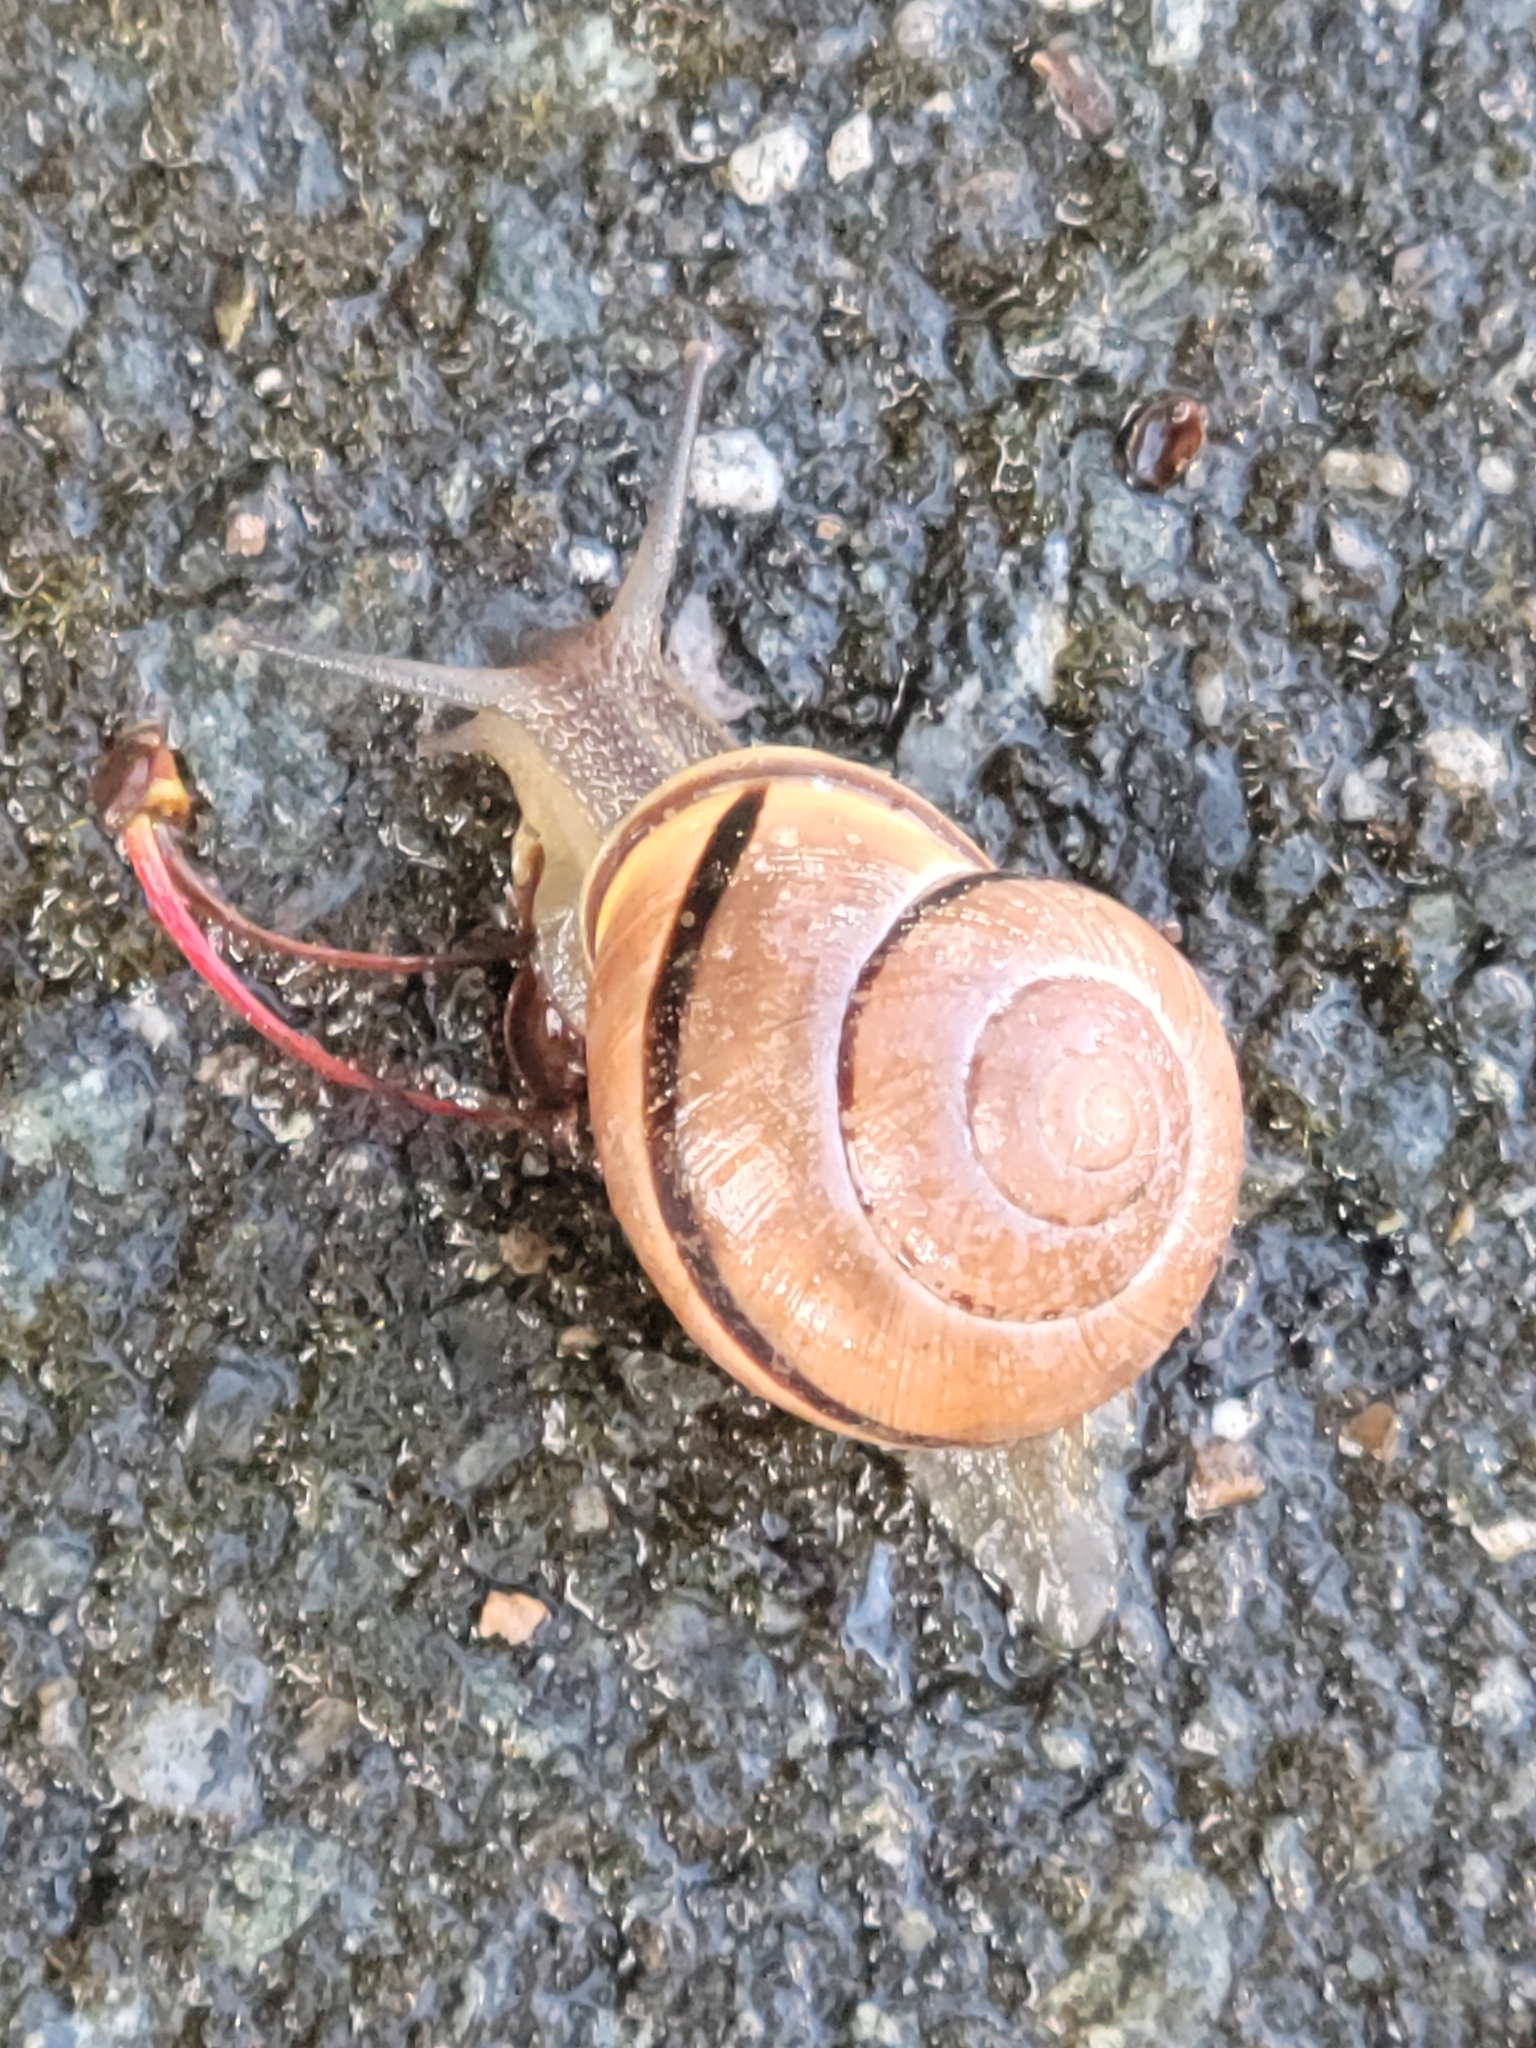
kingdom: Animalia
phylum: Mollusca
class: Gastropoda
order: Stylommatophora
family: Helicidae
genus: Cepaea
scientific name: Cepaea nemoralis
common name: Grovesnail
